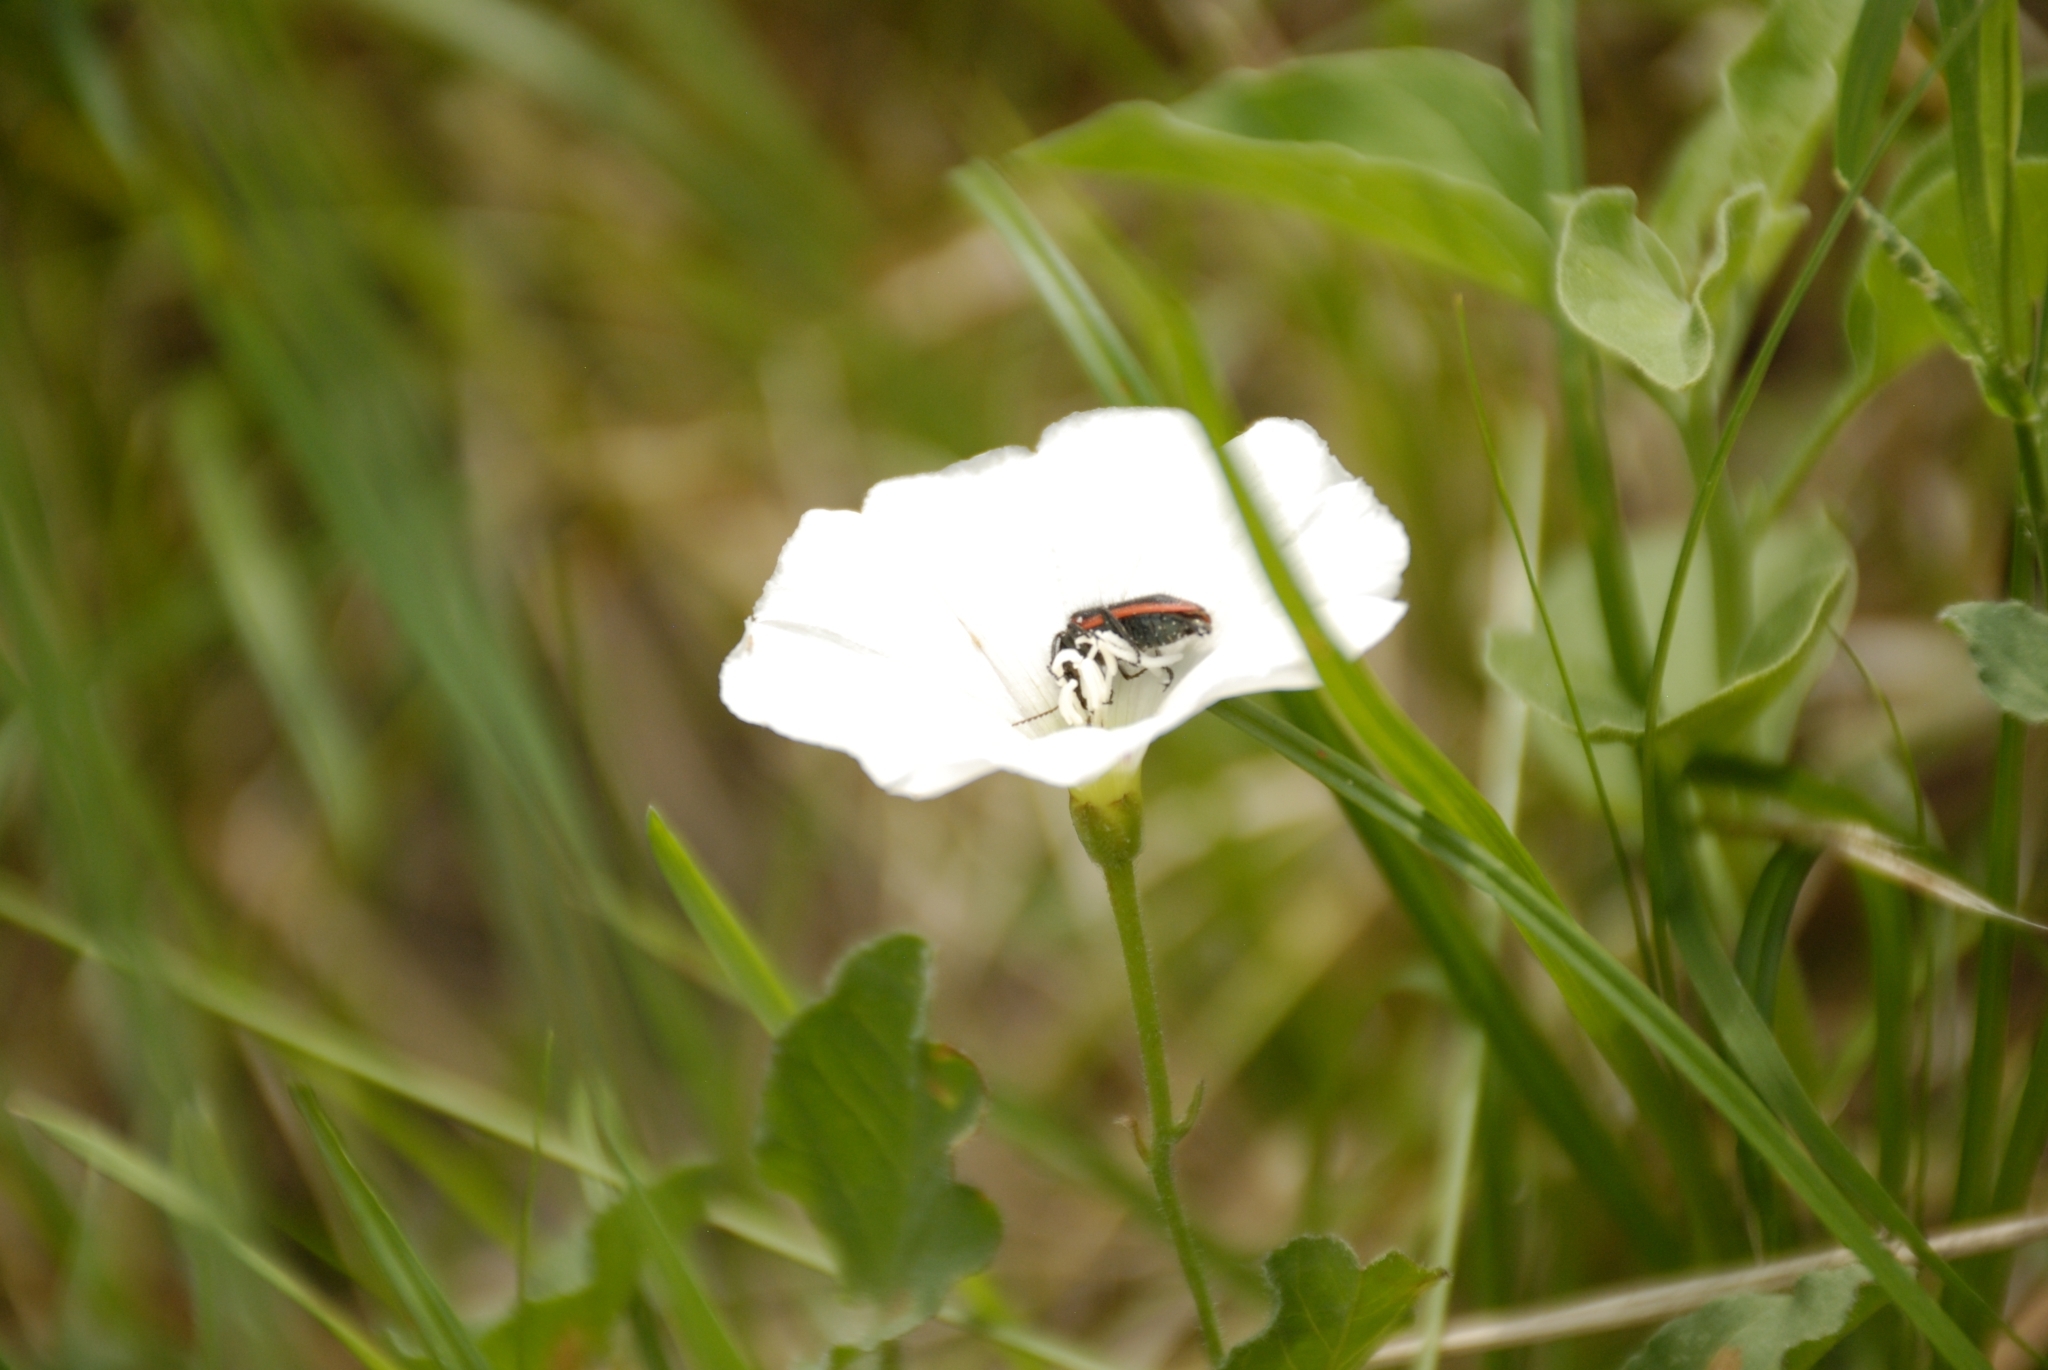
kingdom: Animalia
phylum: Arthropoda
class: Insecta
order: Coleoptera
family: Melyridae
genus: Astylus
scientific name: Astylus
